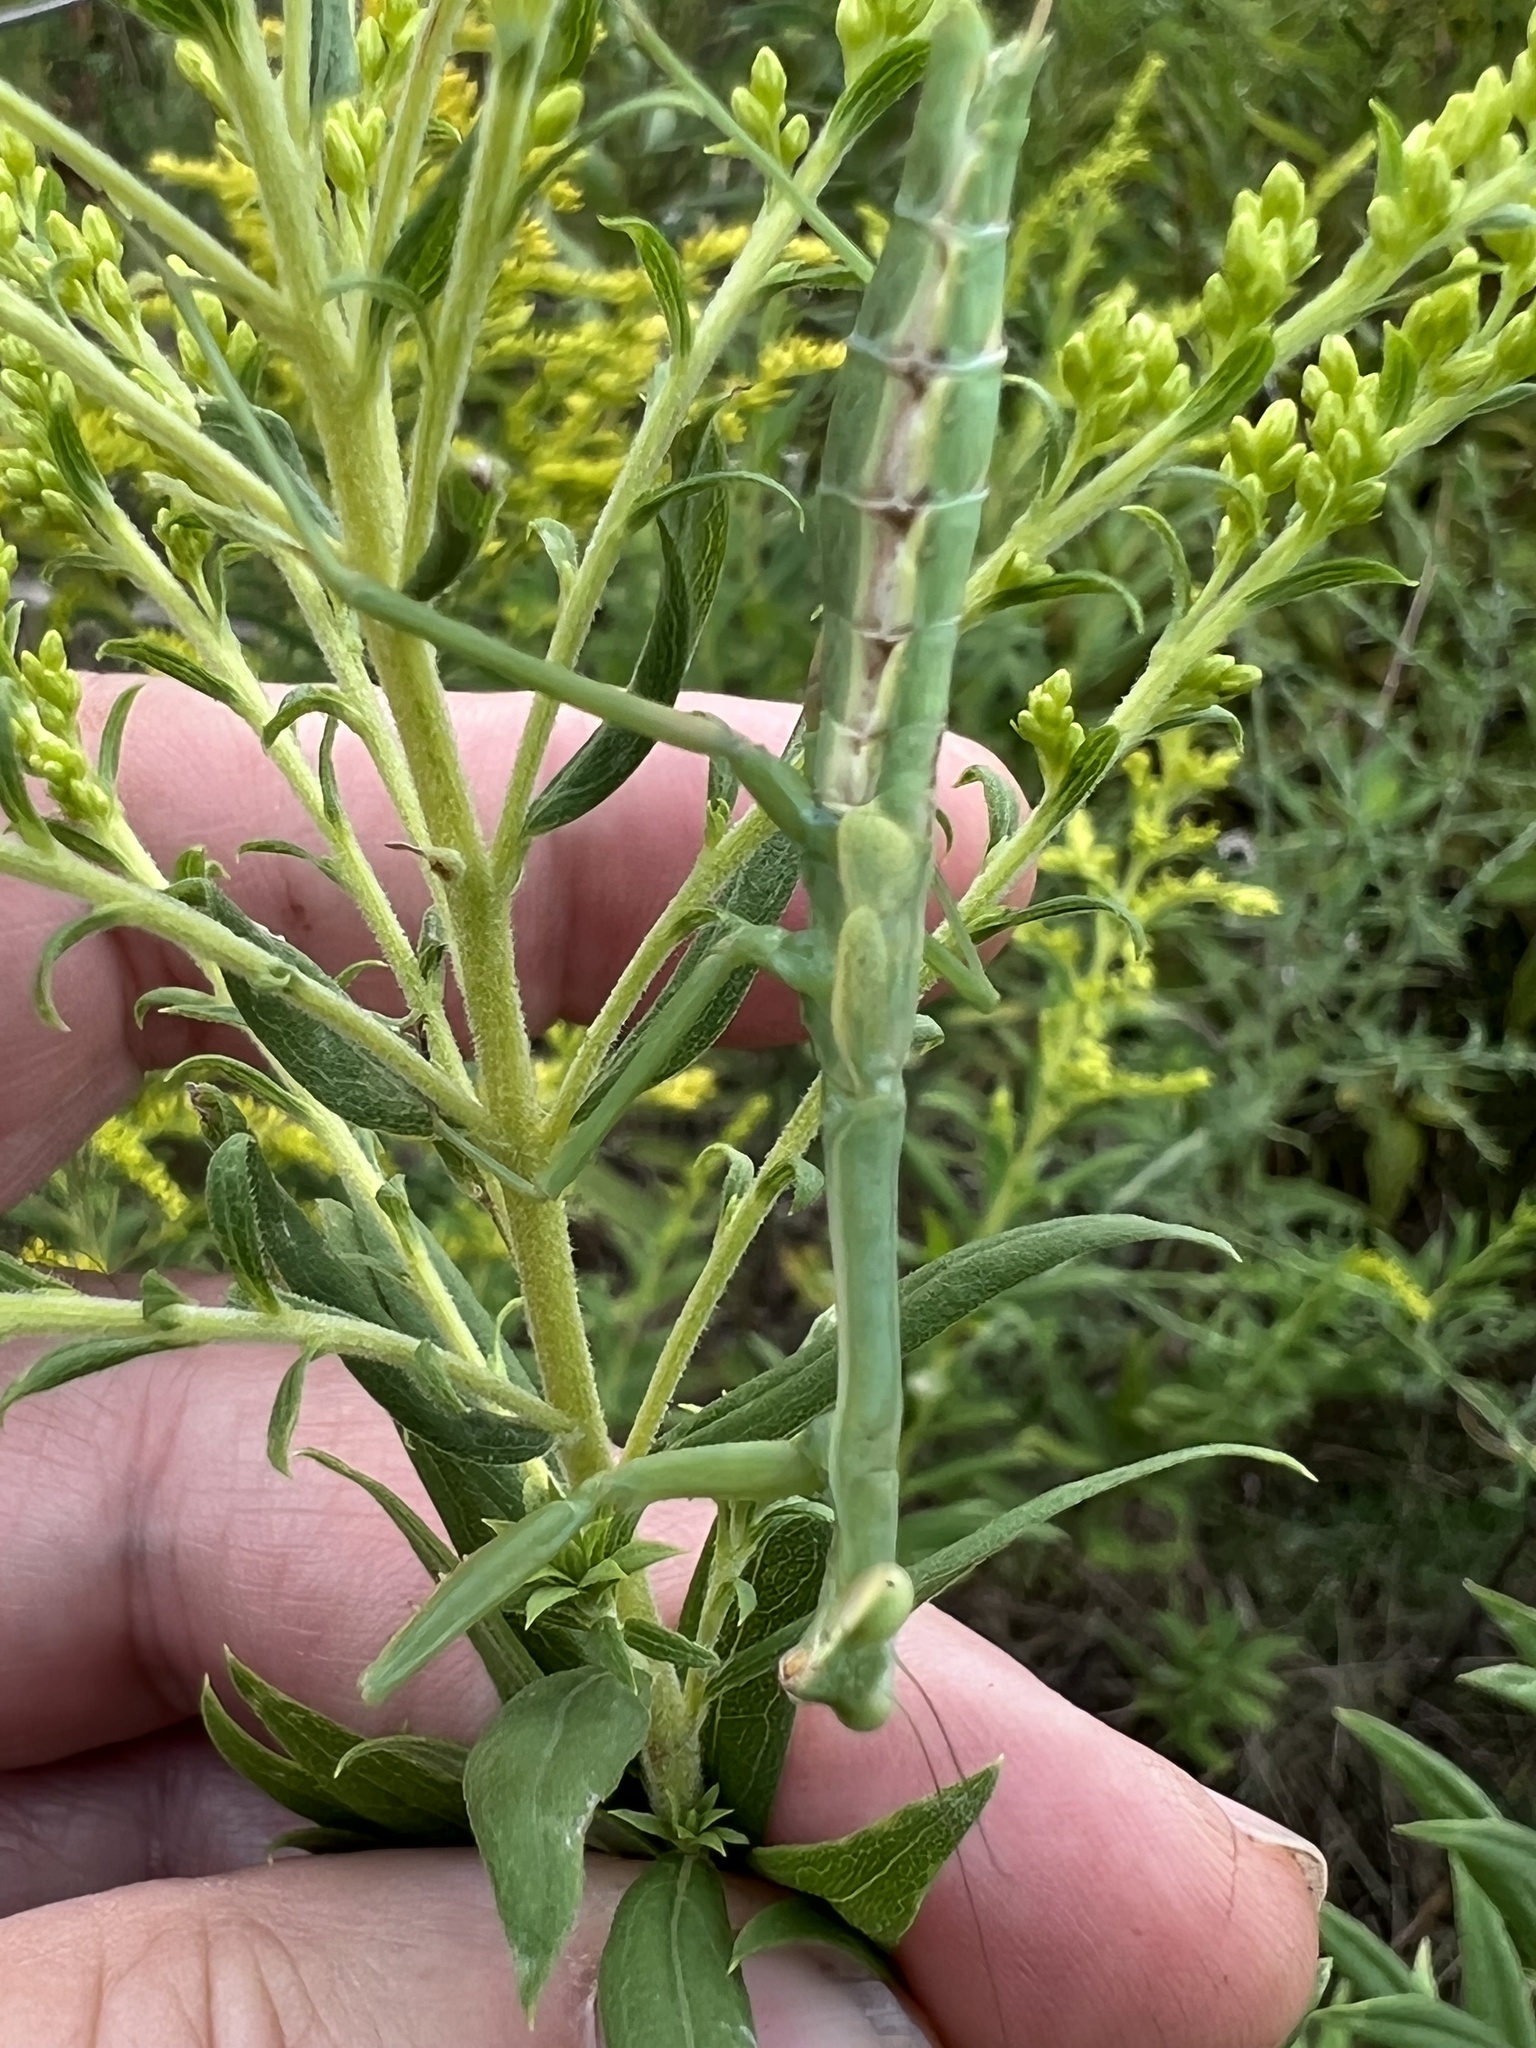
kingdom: Animalia
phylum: Arthropoda
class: Insecta
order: Mantodea
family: Mantidae
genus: Stagmomantis
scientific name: Stagmomantis carolina
